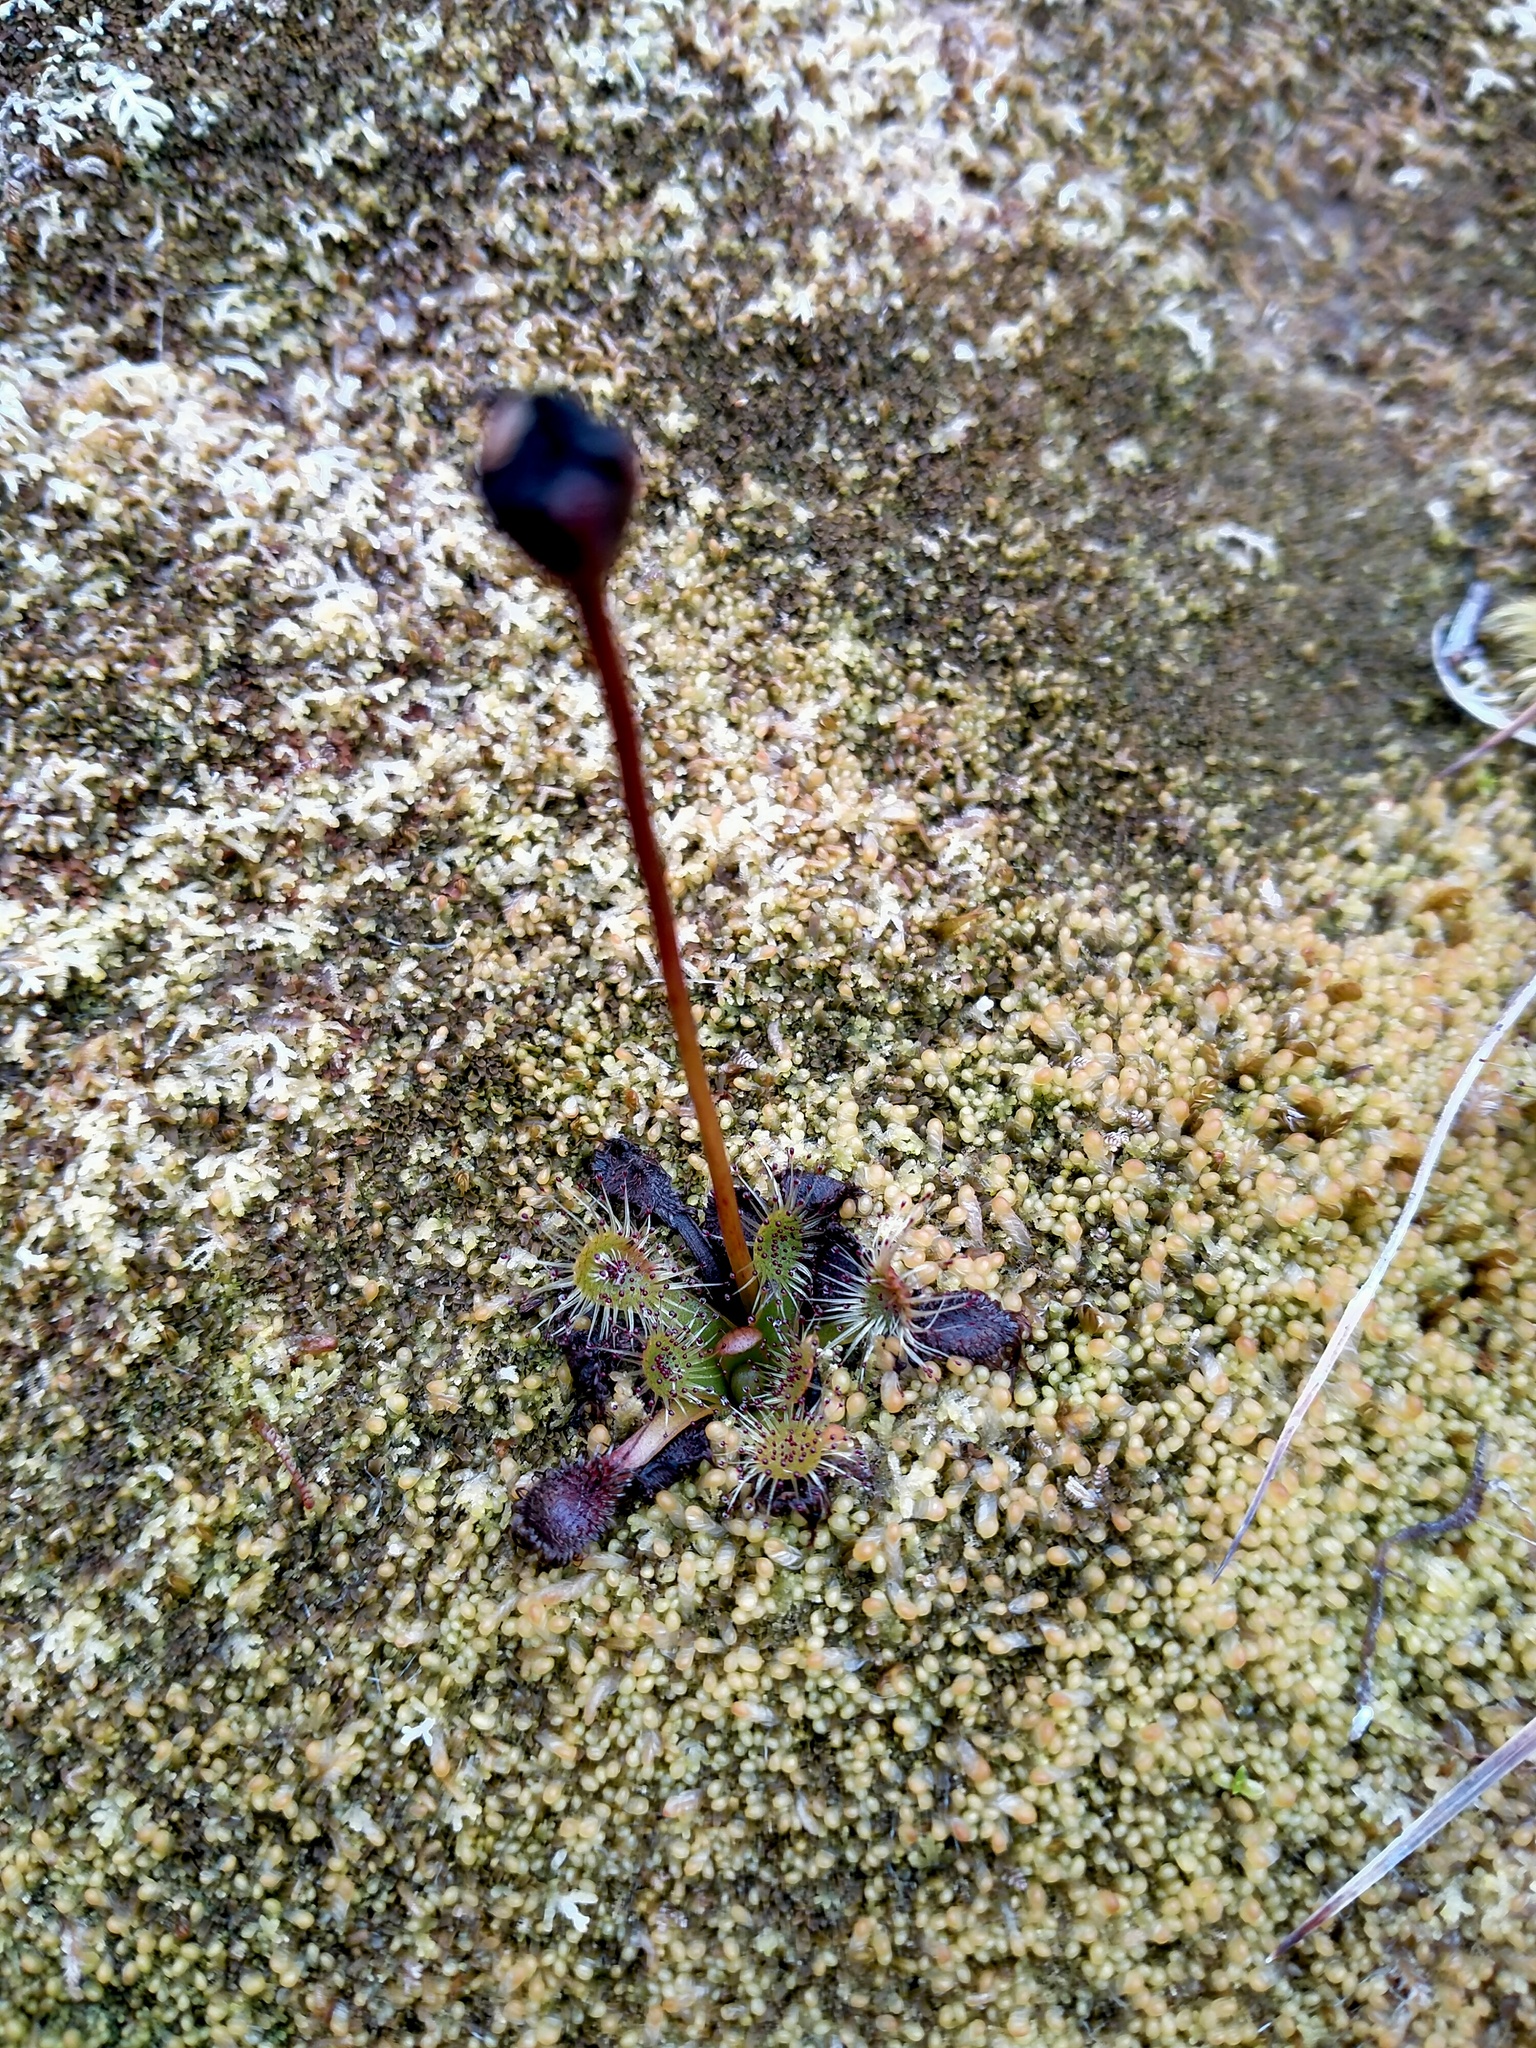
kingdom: Plantae
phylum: Tracheophyta
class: Magnoliopsida
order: Caryophyllales
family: Droseraceae
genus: Drosera
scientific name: Drosera stenopetala
